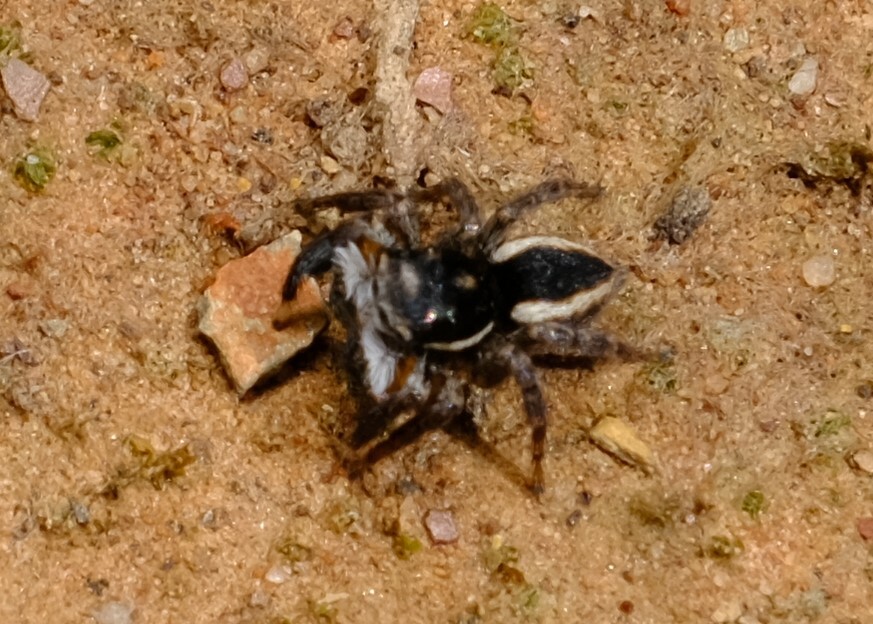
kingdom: Animalia
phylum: Arthropoda
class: Arachnida
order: Araneae
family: Salticidae
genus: Jotus
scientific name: Jotus auripes
